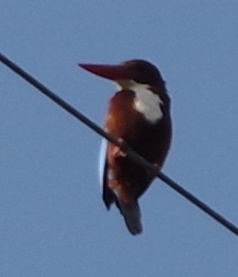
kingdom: Animalia
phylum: Chordata
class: Aves
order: Coraciiformes
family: Alcedinidae
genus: Halcyon
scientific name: Halcyon smyrnensis
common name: White-throated kingfisher
